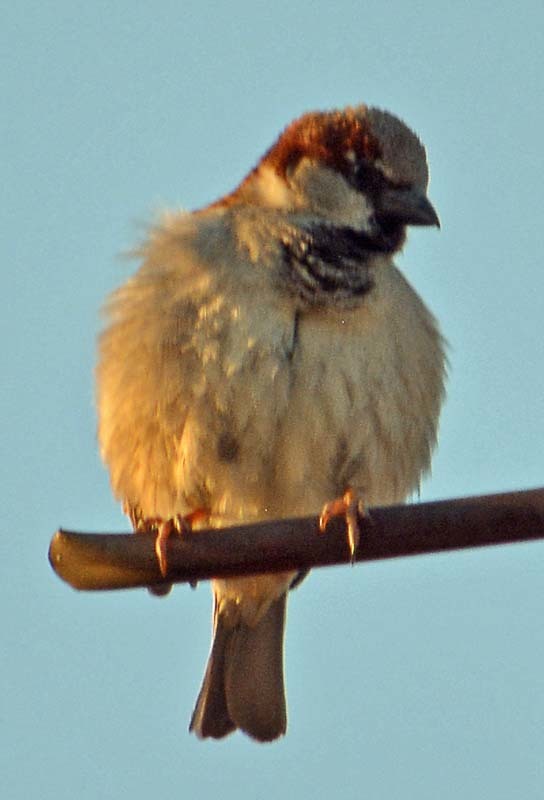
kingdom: Animalia
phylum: Chordata
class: Aves
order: Passeriformes
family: Passeridae
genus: Passer
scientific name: Passer domesticus
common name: House sparrow
